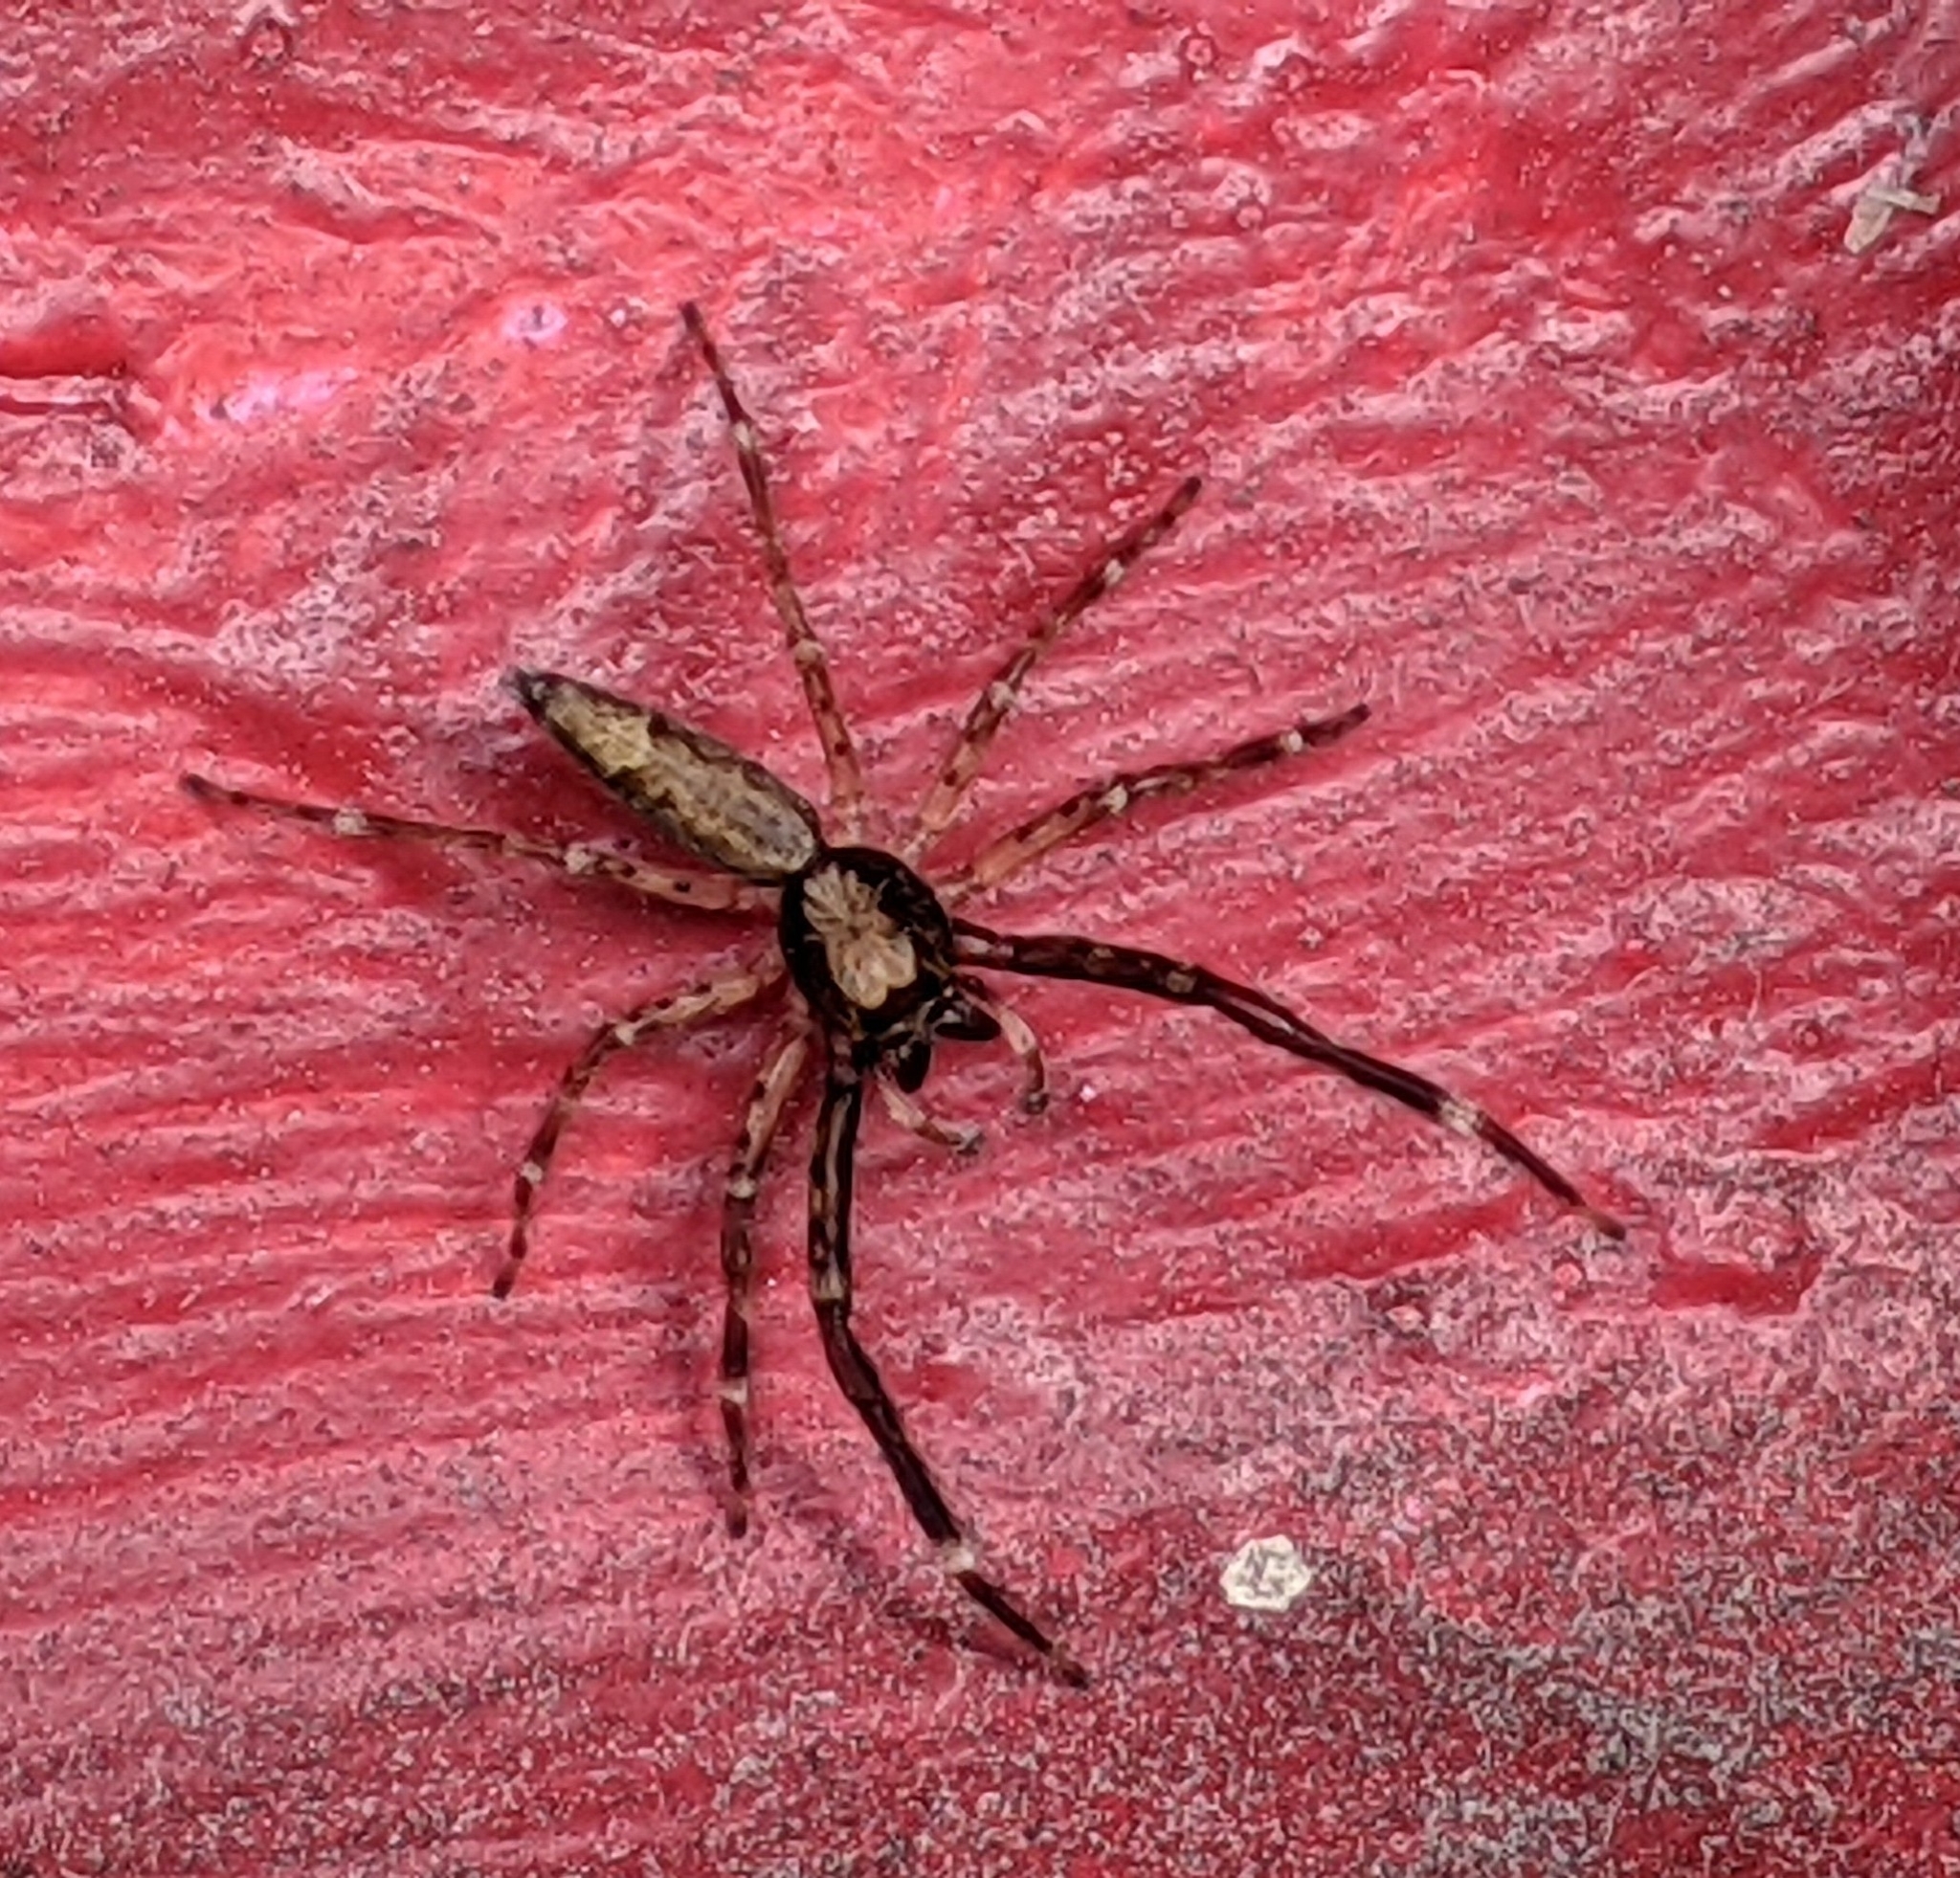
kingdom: Animalia
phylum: Arthropoda
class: Arachnida
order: Araneae
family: Salticidae
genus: Helpis
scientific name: Helpis minitabunda
